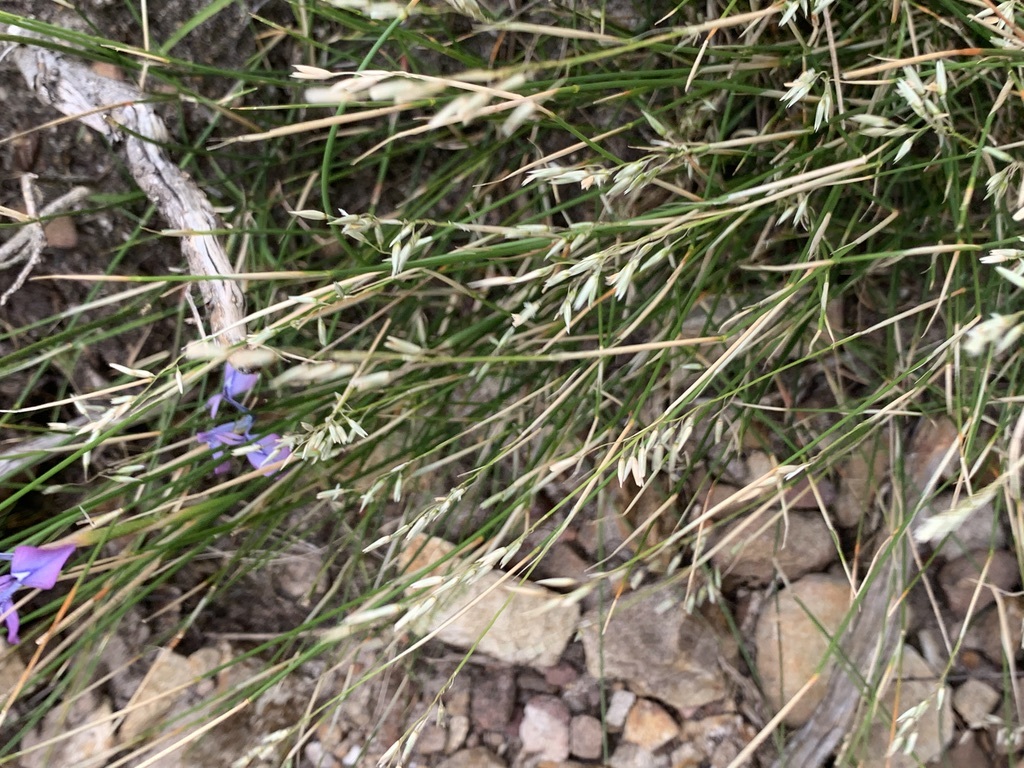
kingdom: Plantae
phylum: Tracheophyta
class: Liliopsida
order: Asparagales
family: Iridaceae
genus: Moraea
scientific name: Moraea tripetala
